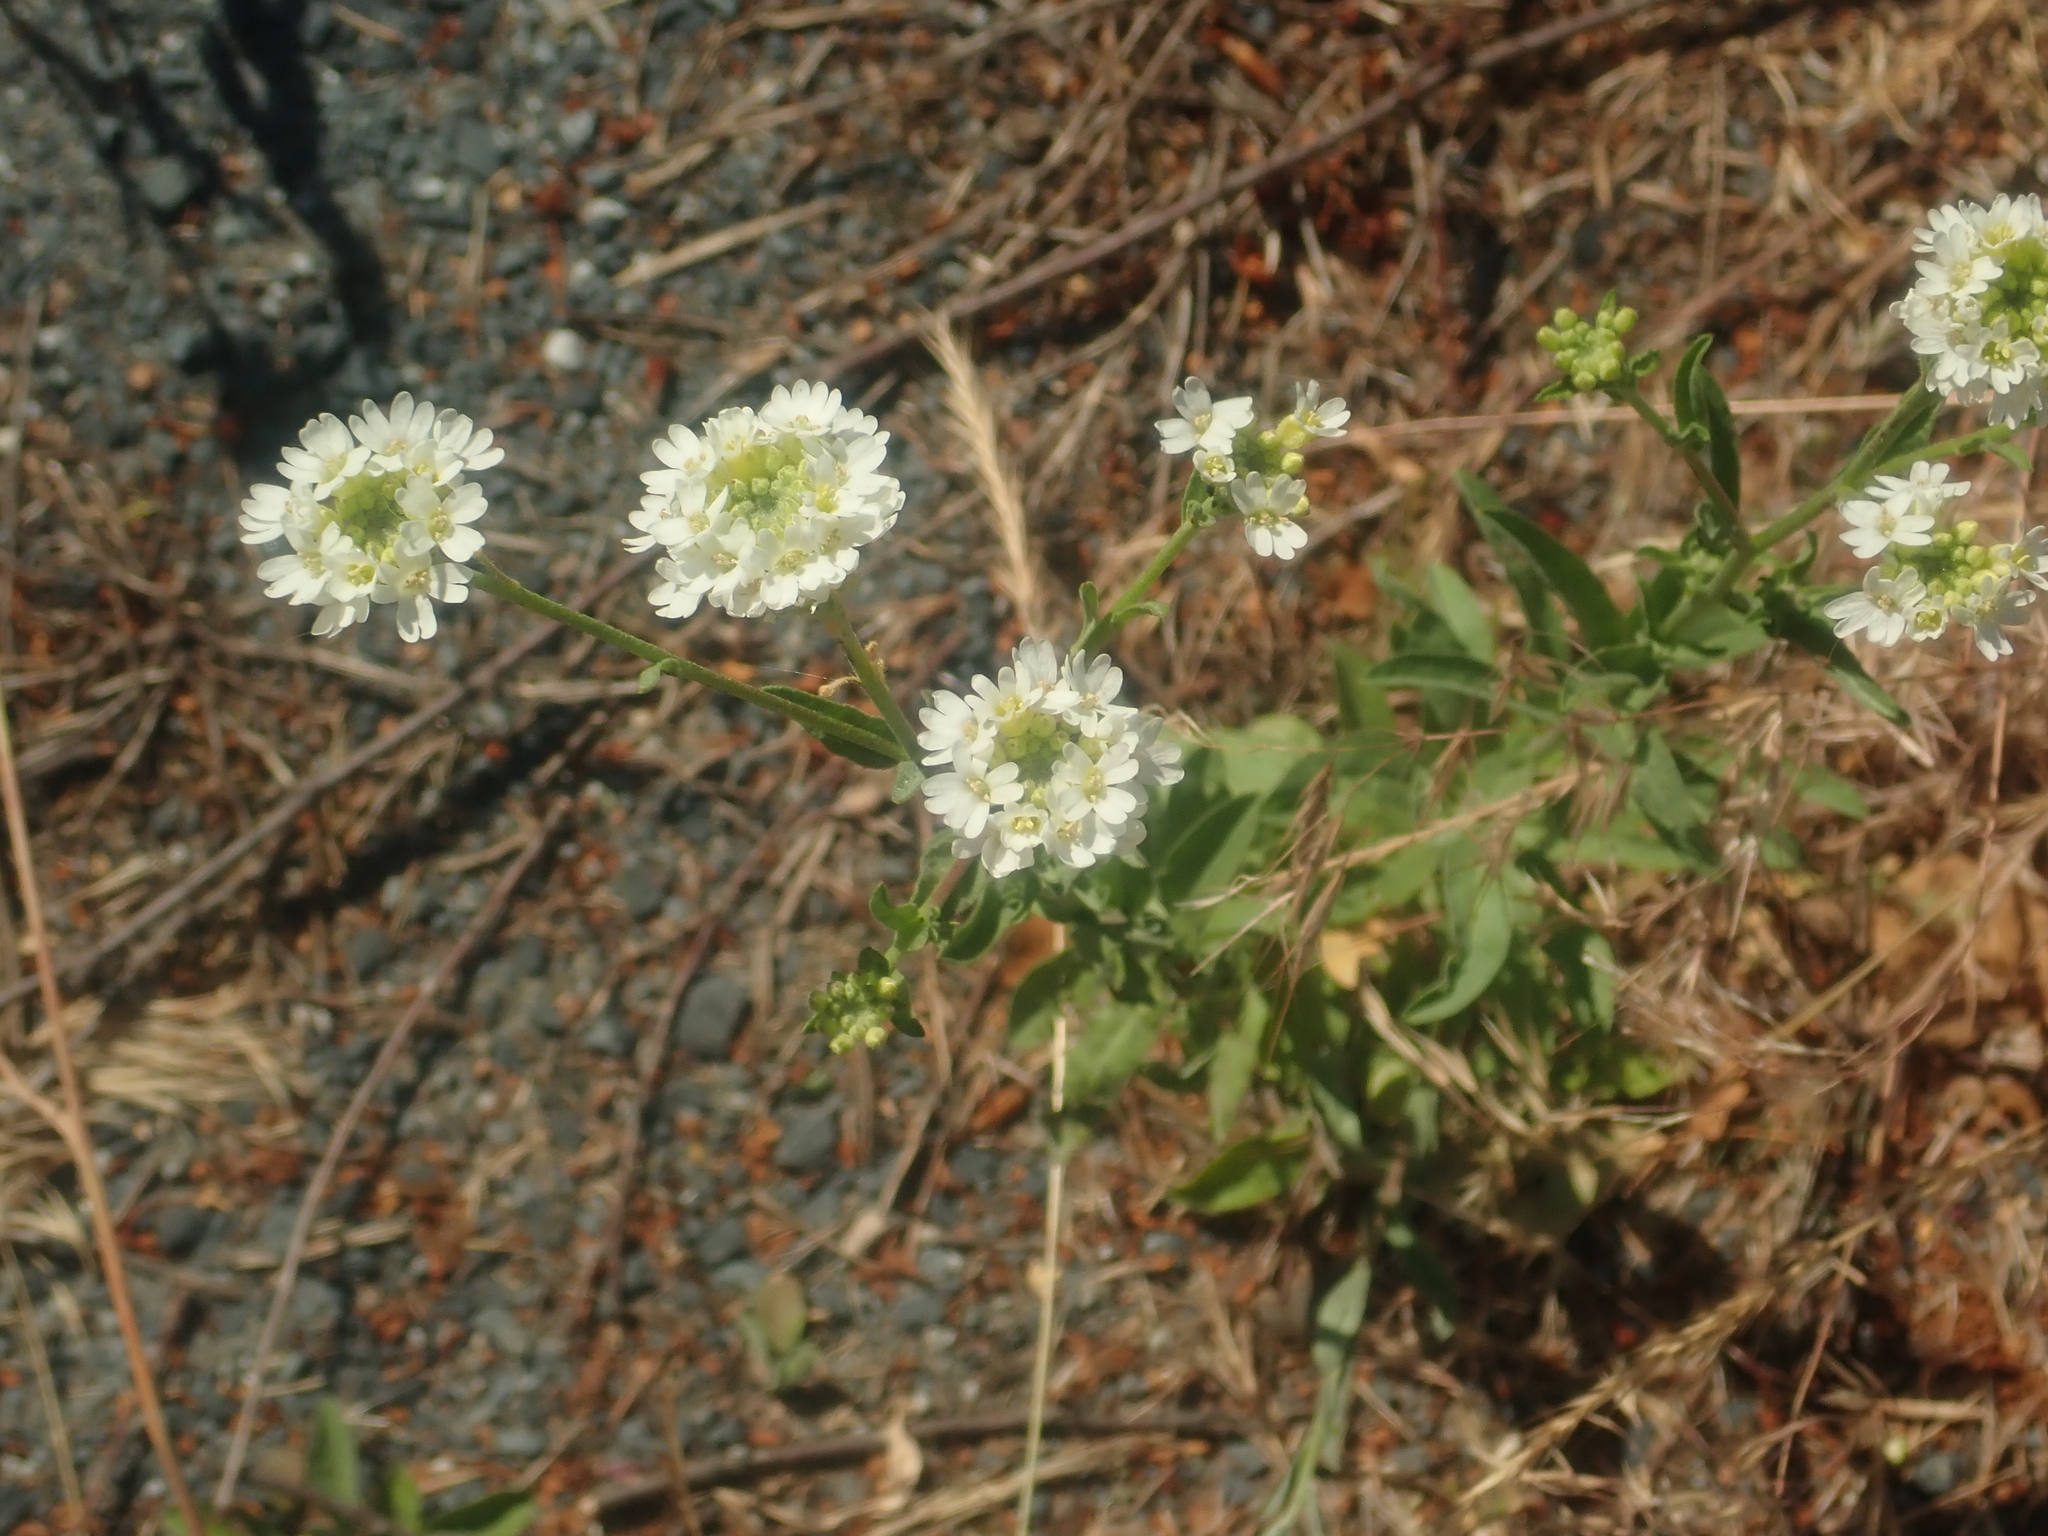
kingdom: Plantae
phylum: Tracheophyta
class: Magnoliopsida
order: Brassicales
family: Brassicaceae
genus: Berteroa
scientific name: Berteroa incana
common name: Hoary alison
